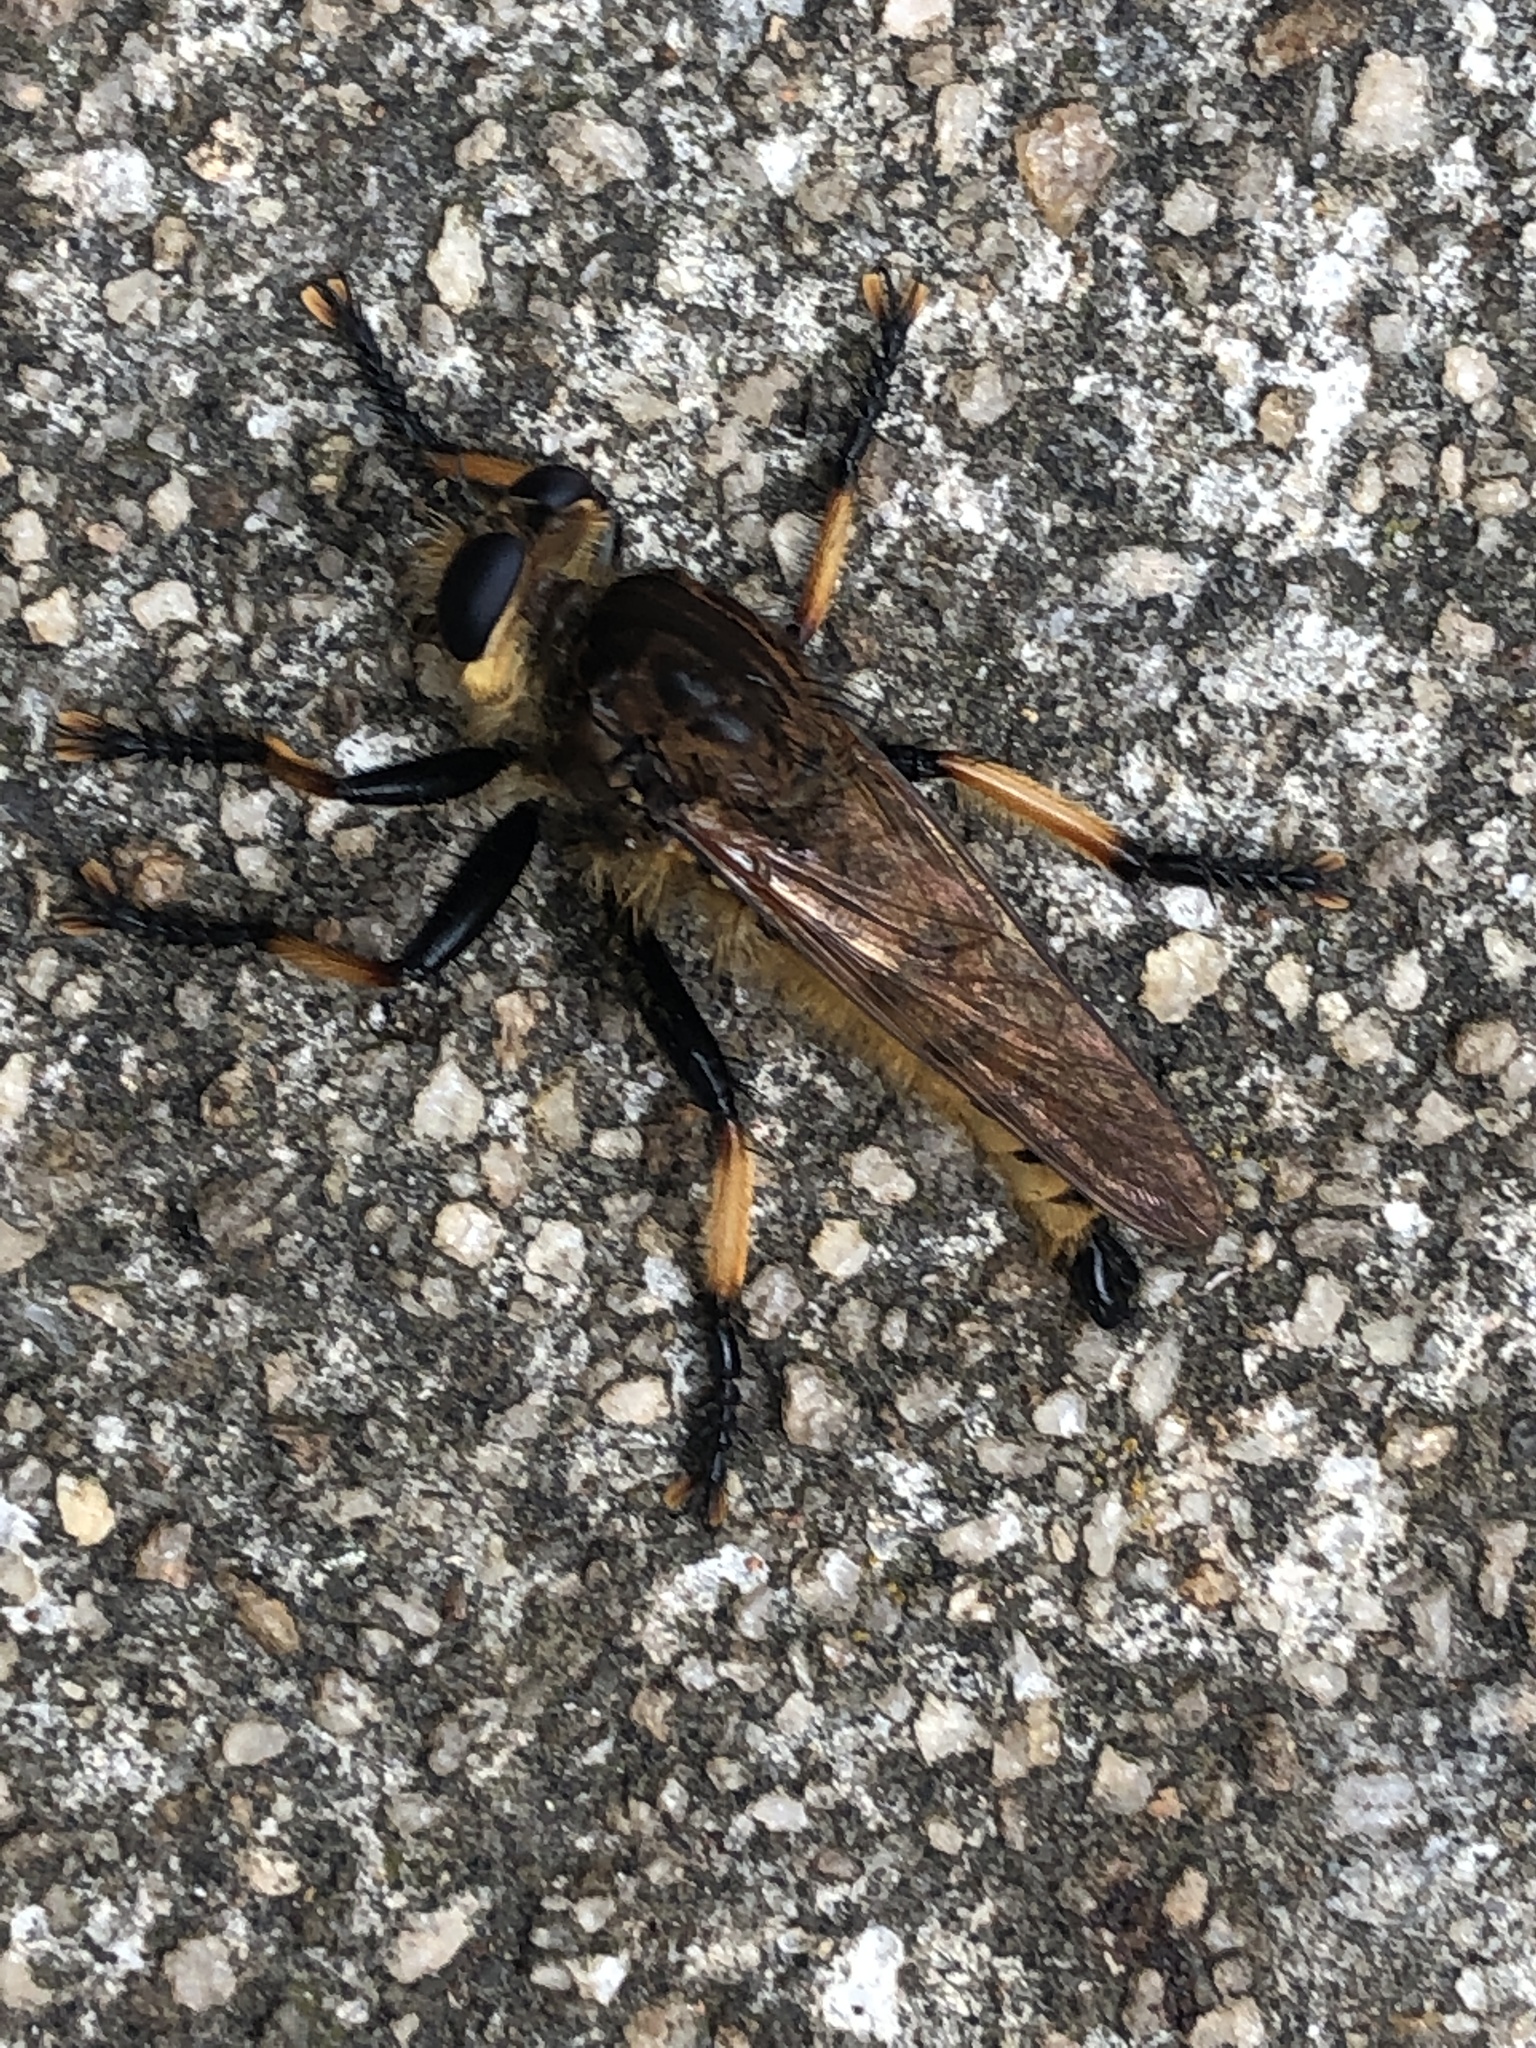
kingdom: Animalia
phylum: Arthropoda
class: Insecta
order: Diptera
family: Asilidae
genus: Promachus
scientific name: Promachus rufipes
